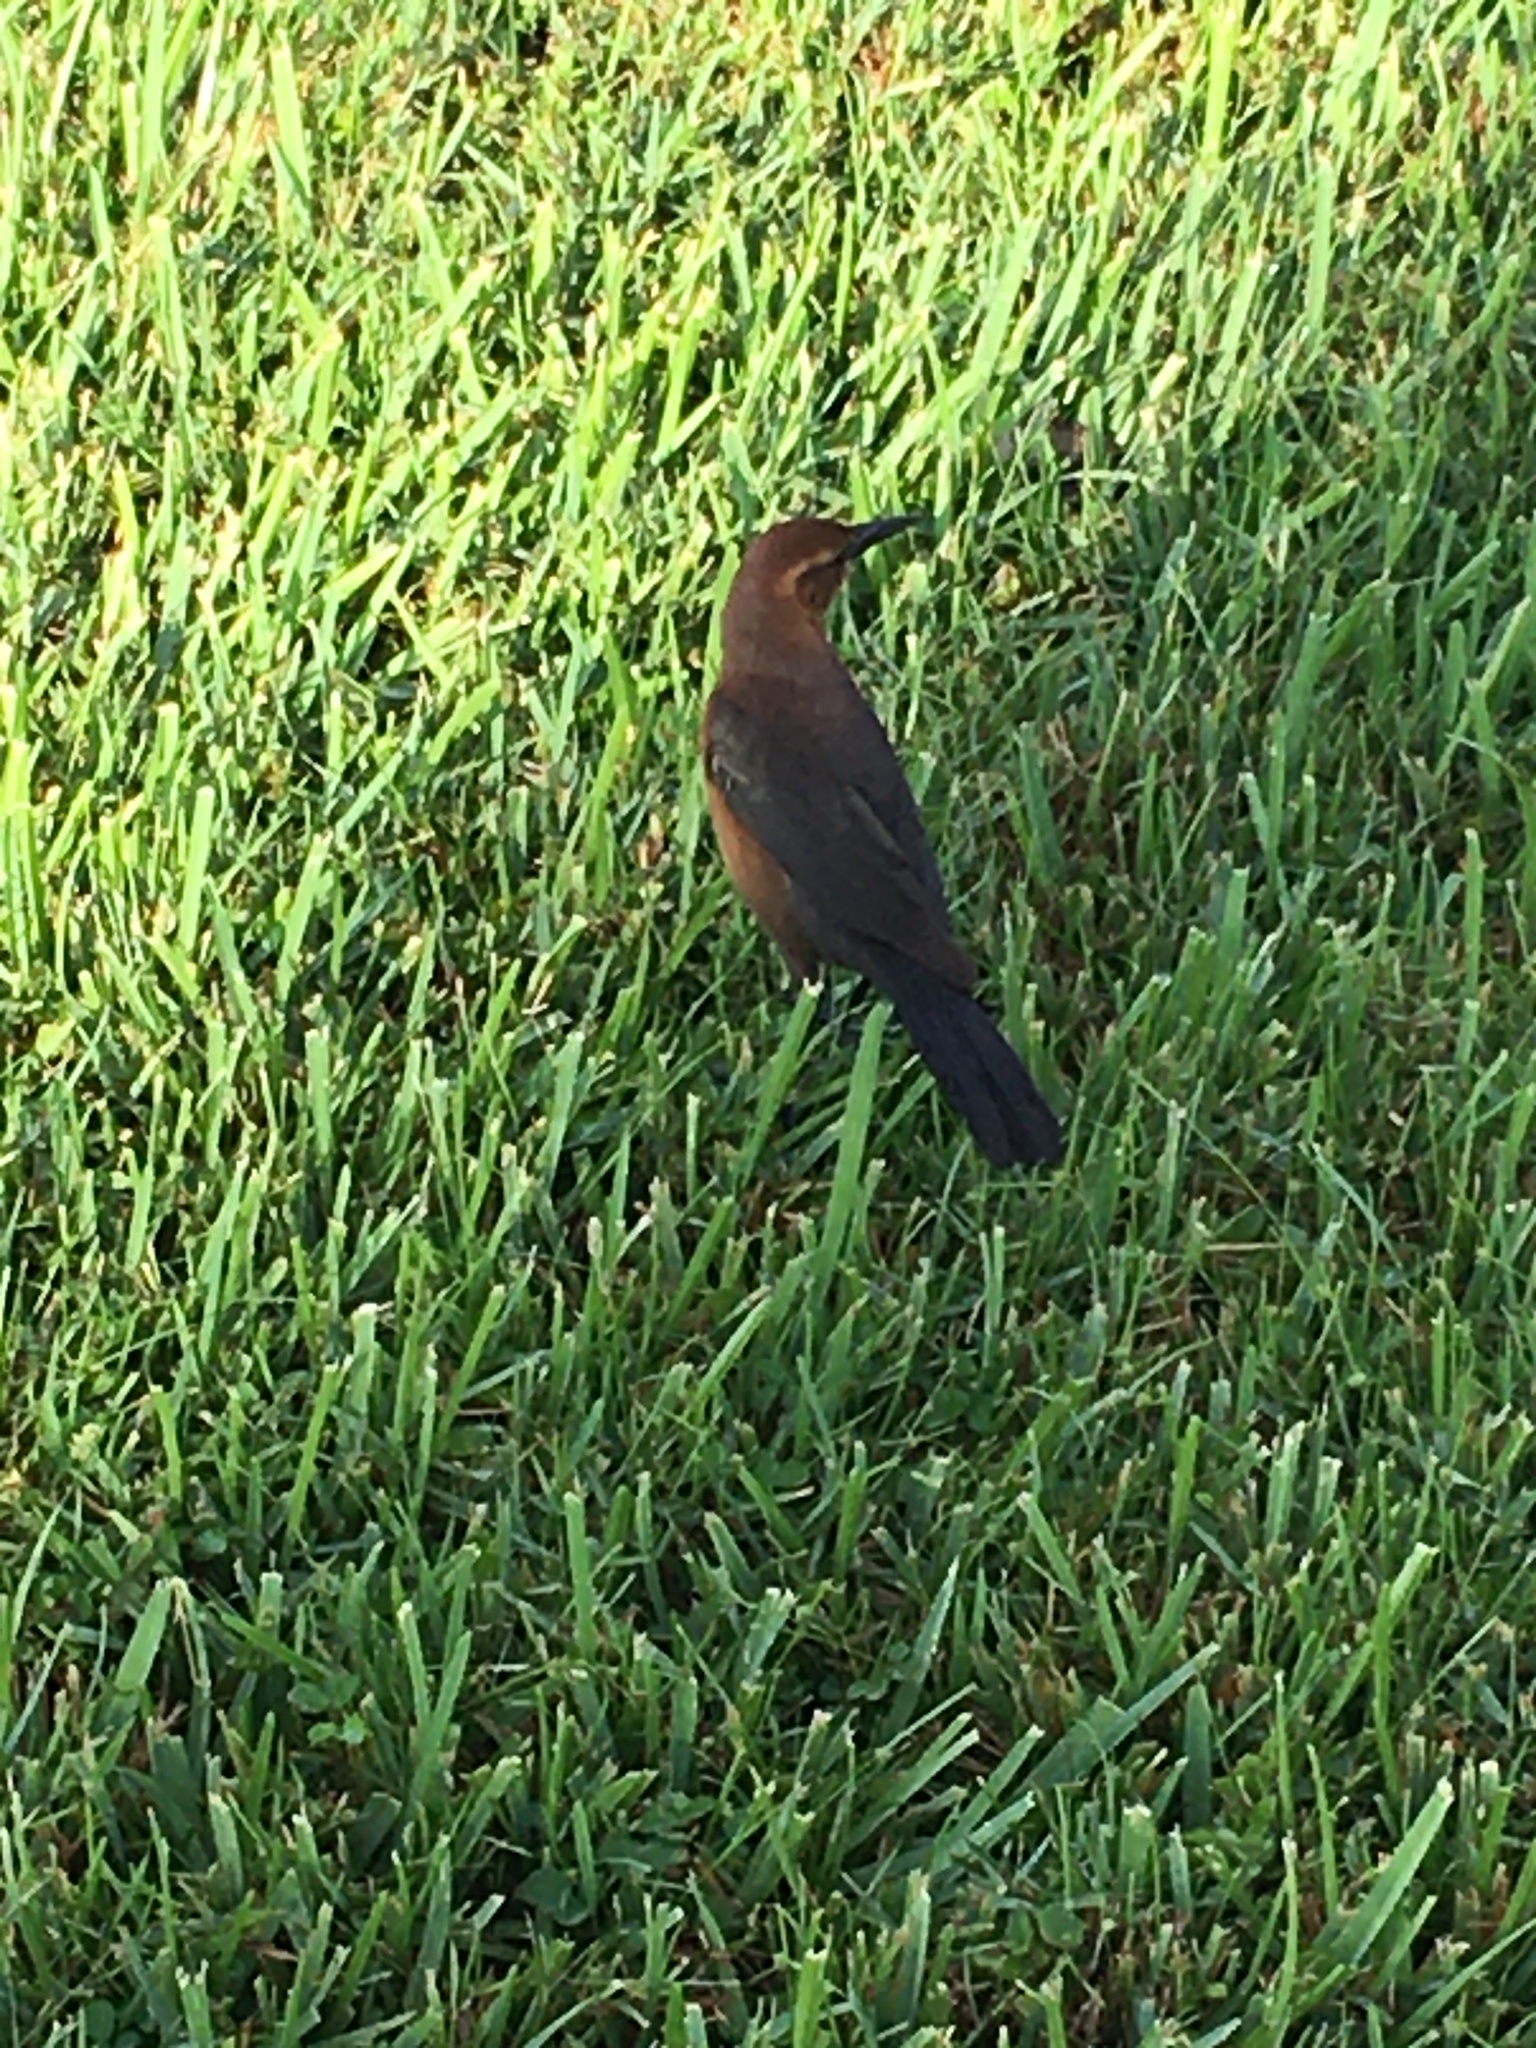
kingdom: Animalia
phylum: Chordata
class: Aves
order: Passeriformes
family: Icteridae
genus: Quiscalus
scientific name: Quiscalus major
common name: Boat-tailed grackle
